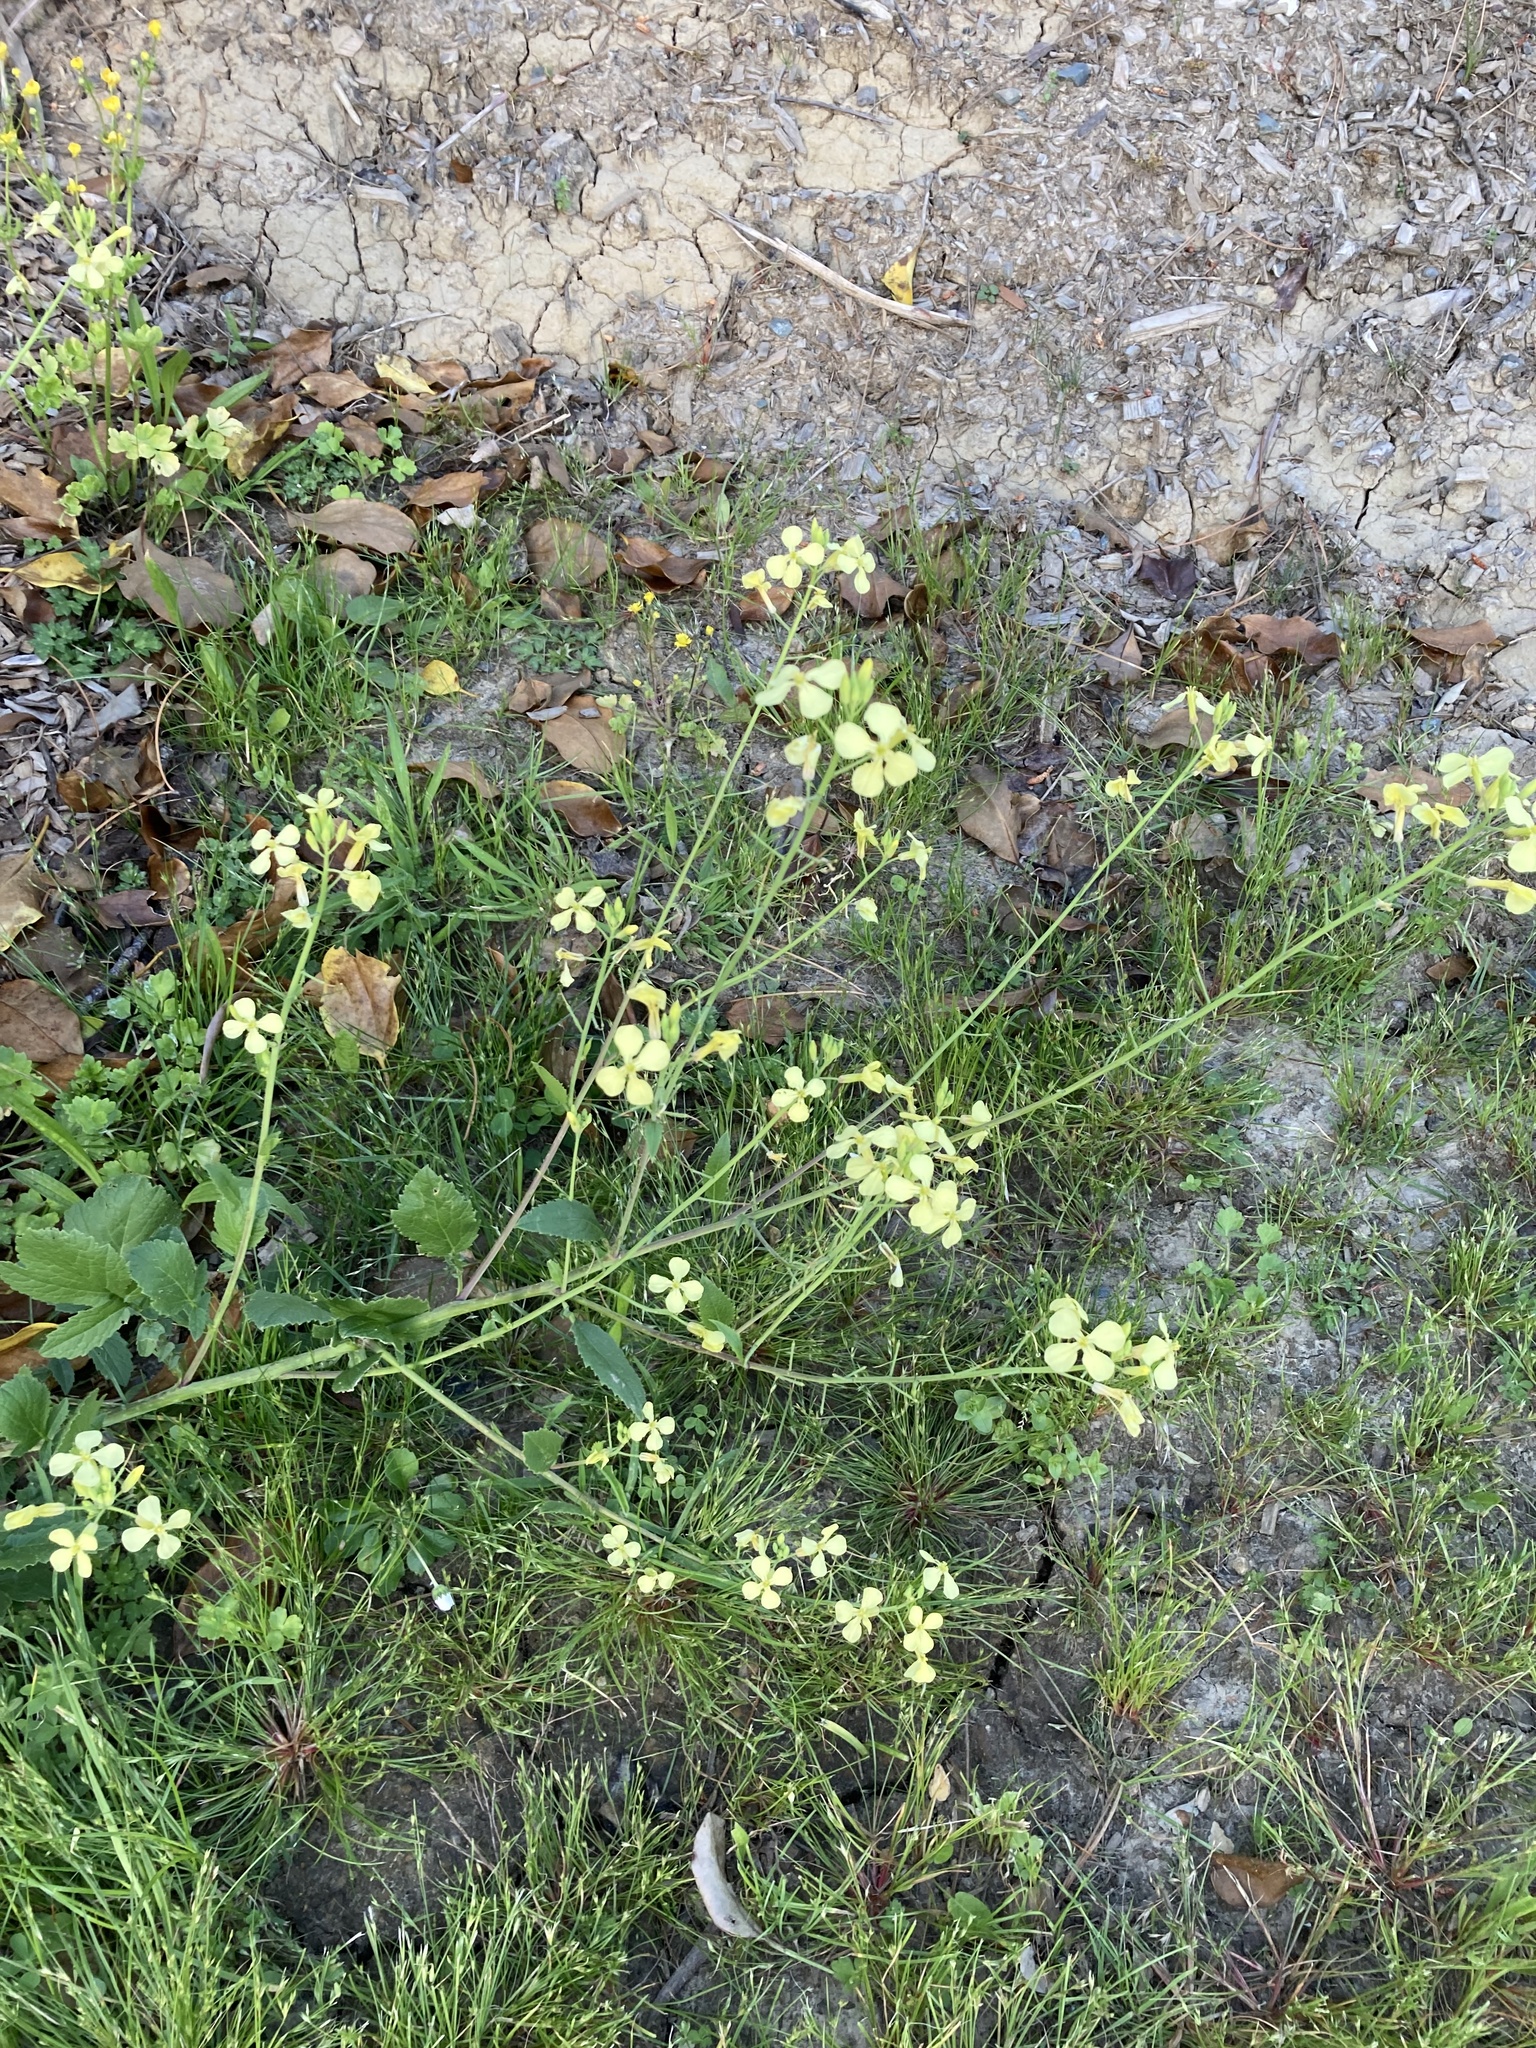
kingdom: Plantae
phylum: Tracheophyta
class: Magnoliopsida
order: Brassicales
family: Brassicaceae
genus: Raphanus
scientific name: Raphanus raphanistrum
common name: Wild radish
